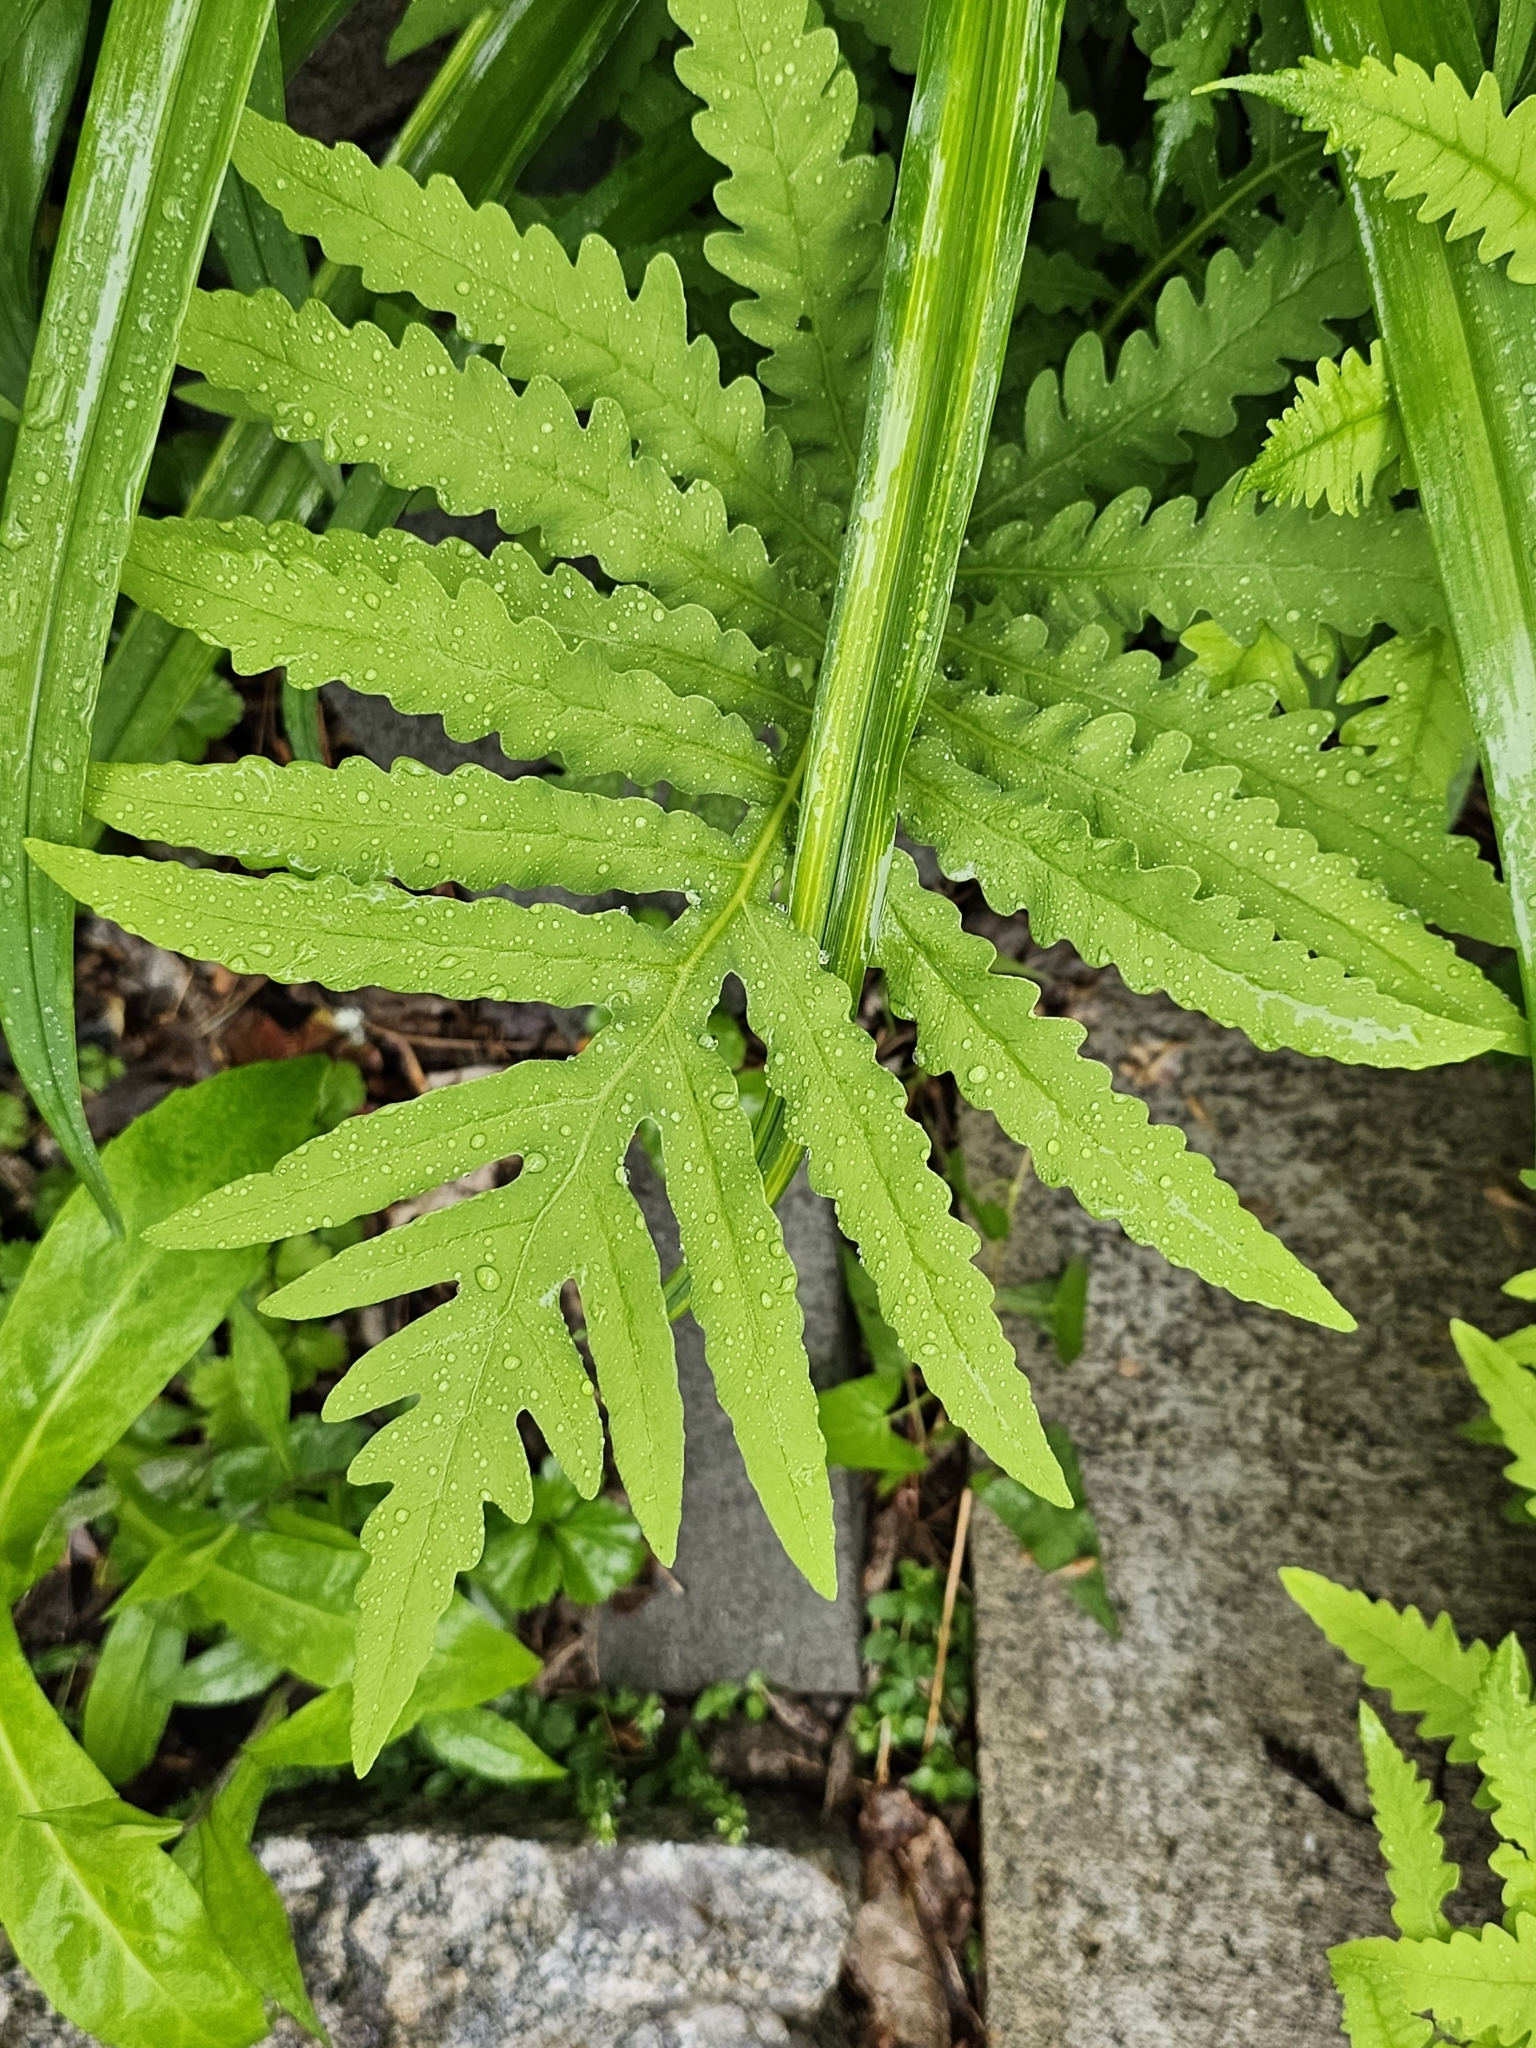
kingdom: Plantae
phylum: Tracheophyta
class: Polypodiopsida
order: Polypodiales
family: Onocleaceae
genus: Onoclea
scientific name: Onoclea sensibilis
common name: Sensitive fern
